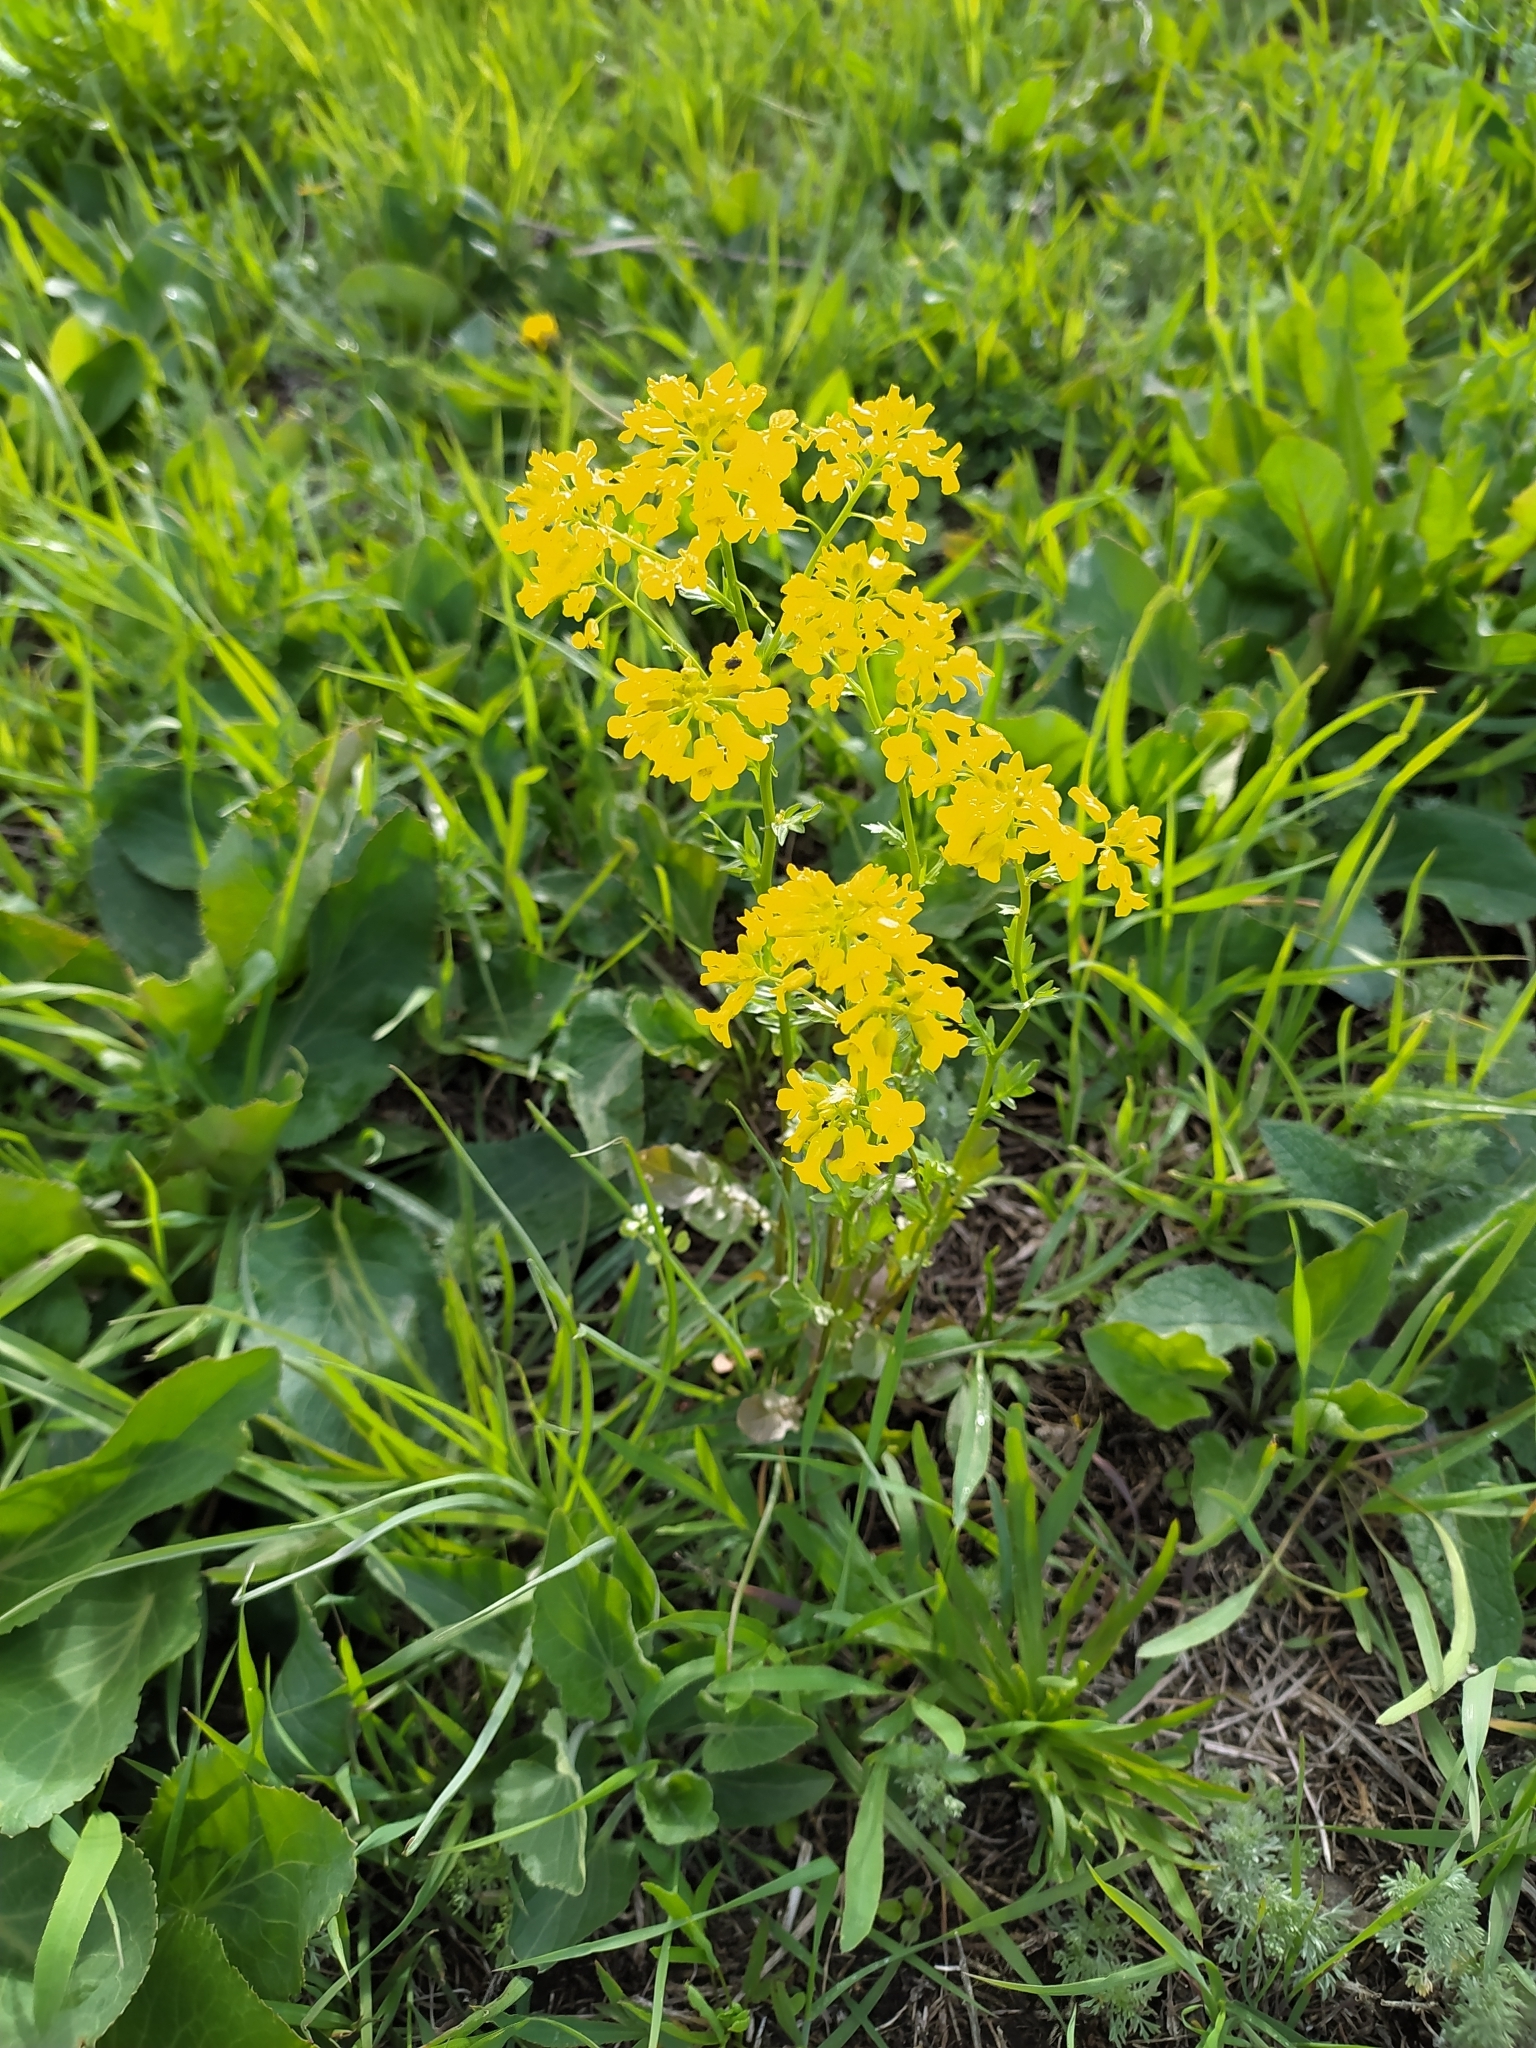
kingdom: Plantae
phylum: Tracheophyta
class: Magnoliopsida
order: Brassicales
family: Brassicaceae
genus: Barbarea
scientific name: Barbarea vulgaris
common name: Cressy-greens
